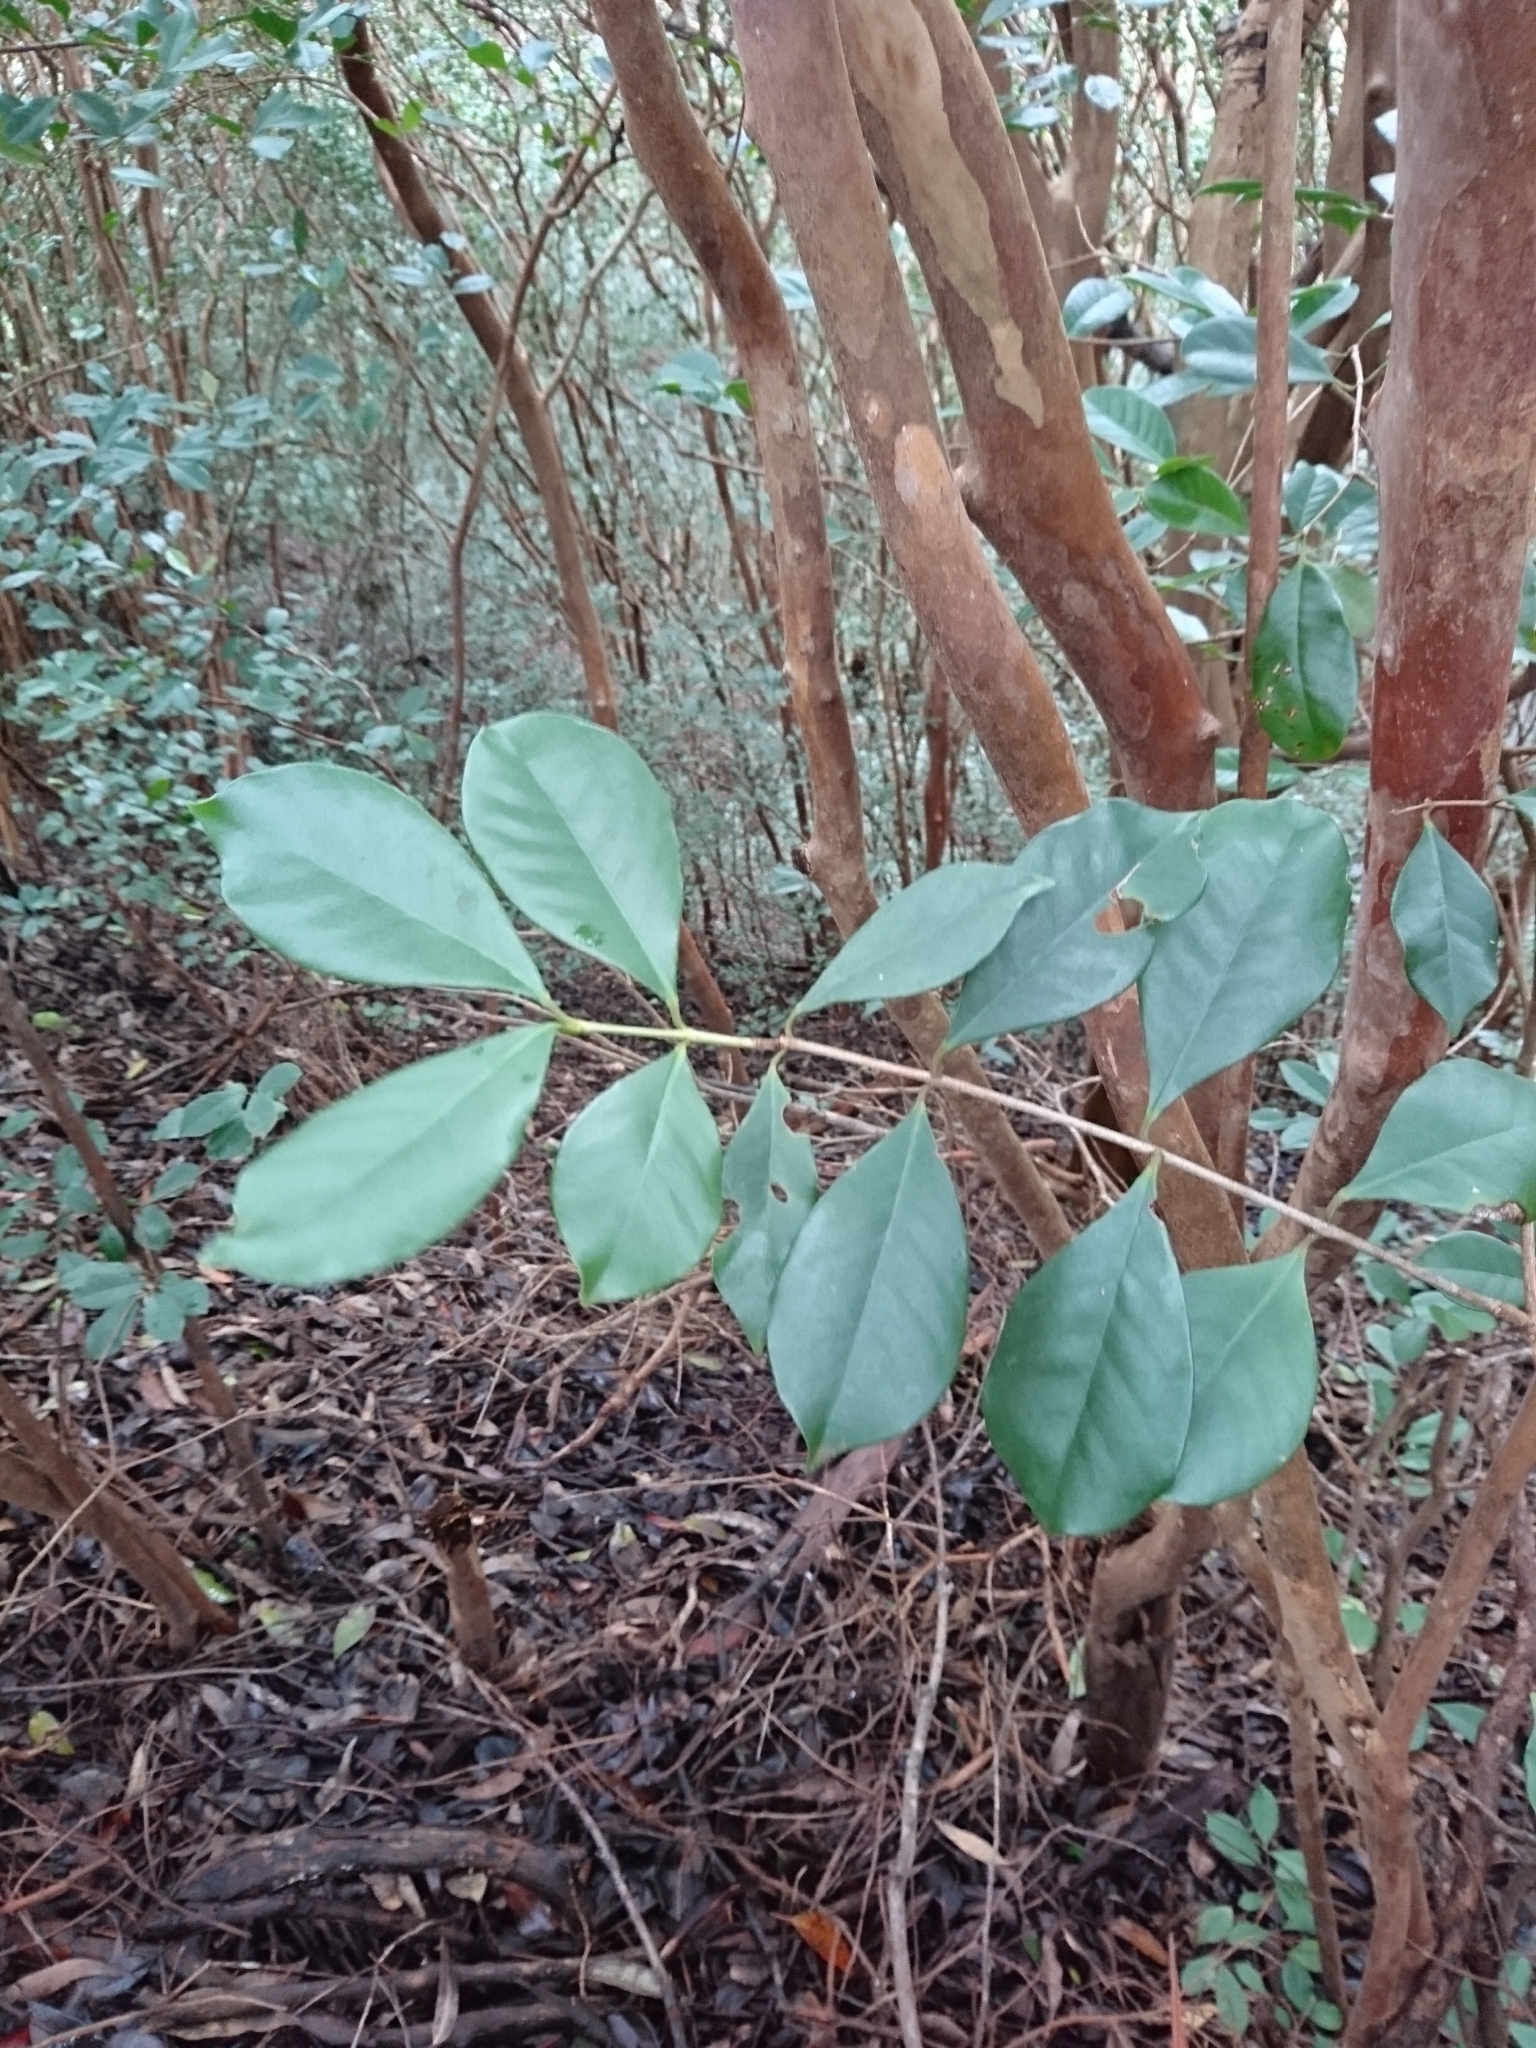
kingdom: Plantae
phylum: Tracheophyta
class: Magnoliopsida
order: Myrtales
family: Myrtaceae
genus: Psidium
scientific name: Psidium cattleianum
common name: Strawberry guava
